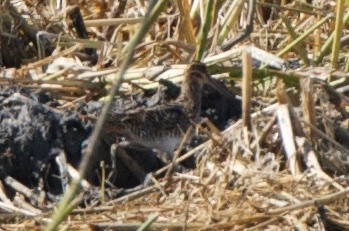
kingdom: Animalia
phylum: Chordata
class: Aves
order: Charadriiformes
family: Scolopacidae
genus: Gallinago
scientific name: Gallinago delicata
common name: Wilson's snipe
